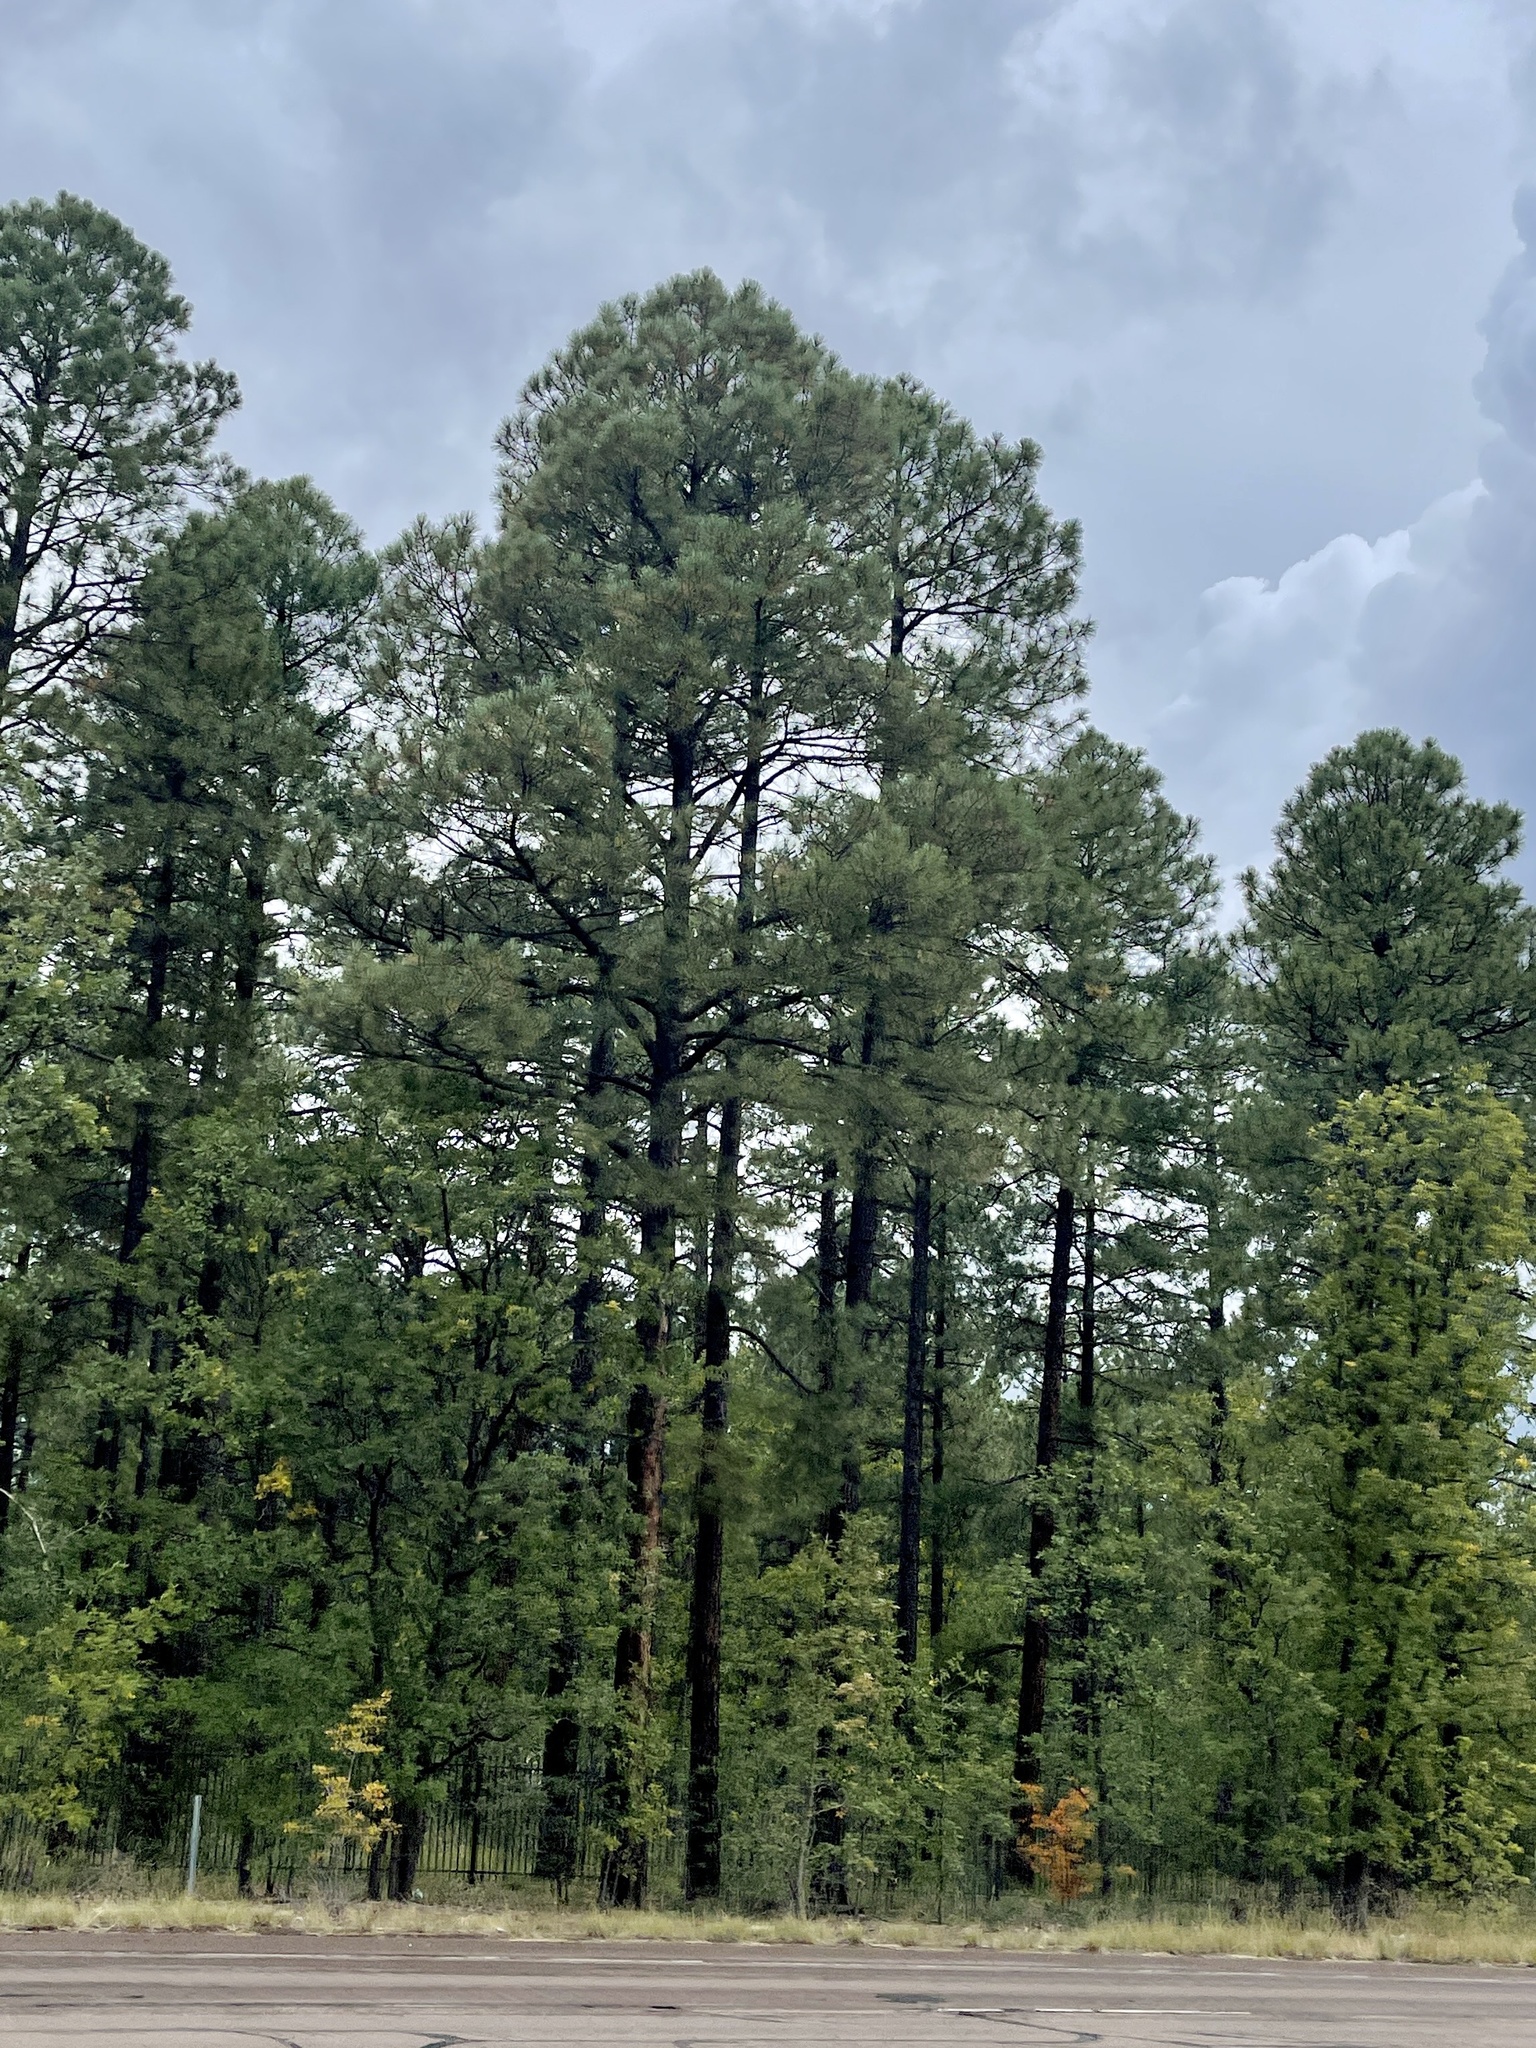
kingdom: Plantae
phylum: Tracheophyta
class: Pinopsida
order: Pinales
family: Pinaceae
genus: Pinus
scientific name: Pinus ponderosa
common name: Western yellow-pine
